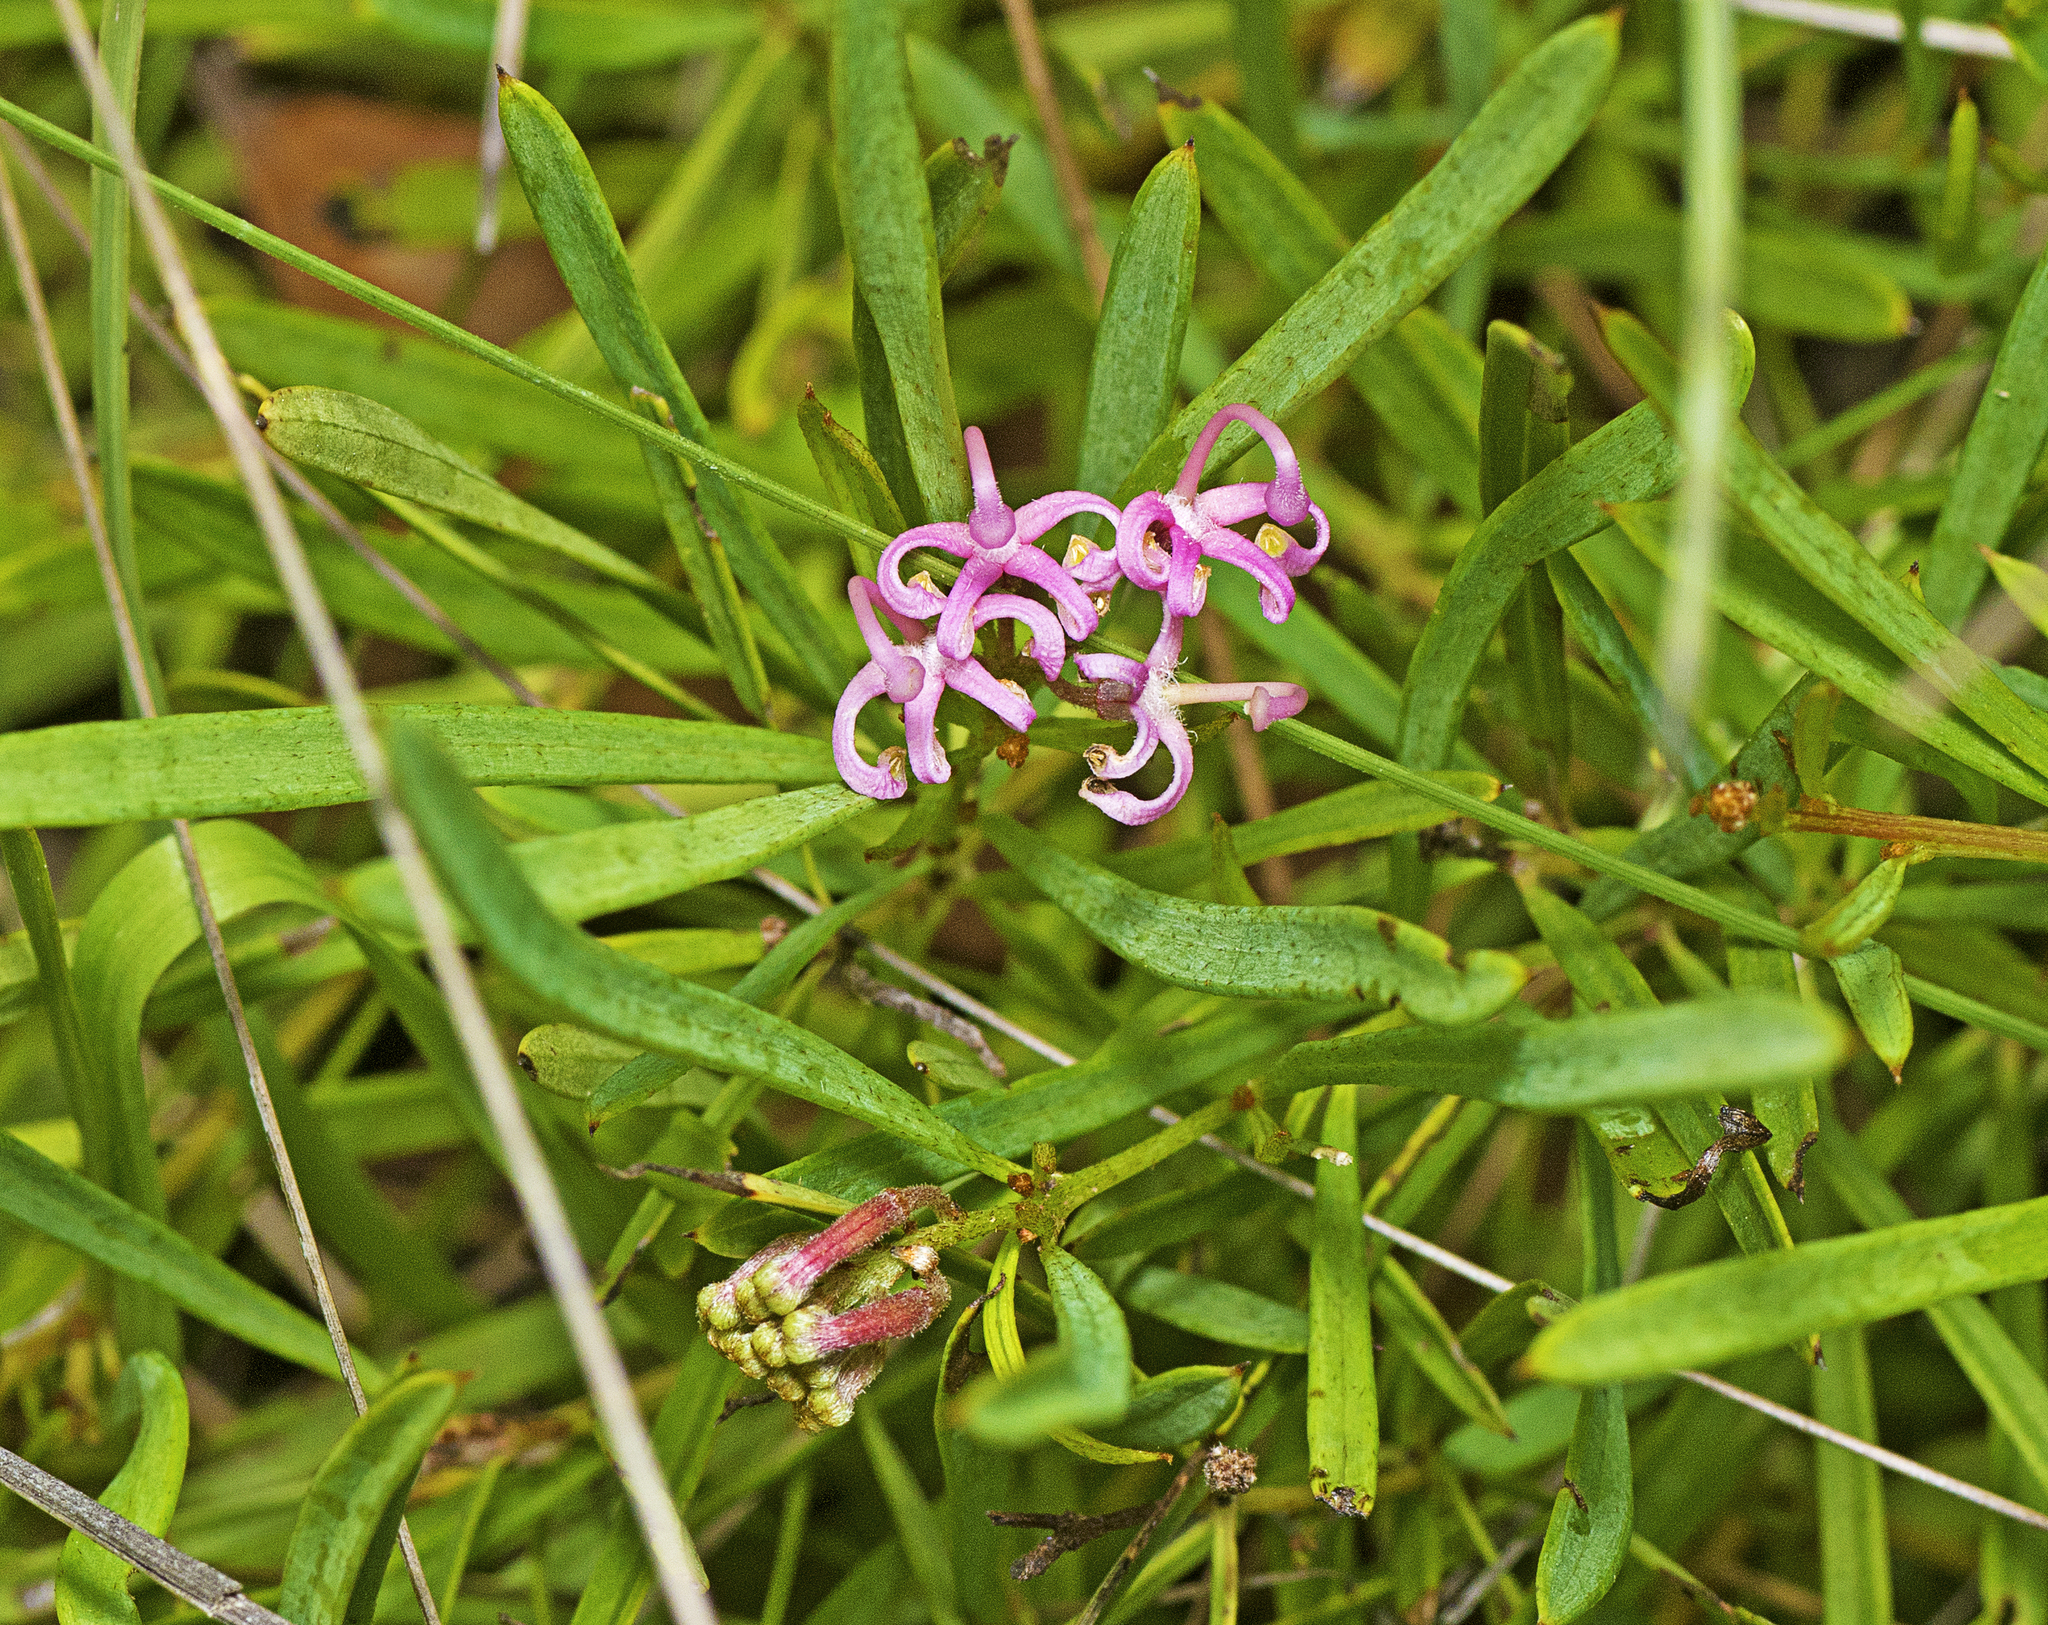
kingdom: Plantae
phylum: Tracheophyta
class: Magnoliopsida
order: Proteales
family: Proteaceae
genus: Grevillea
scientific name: Grevillea leiophylla
